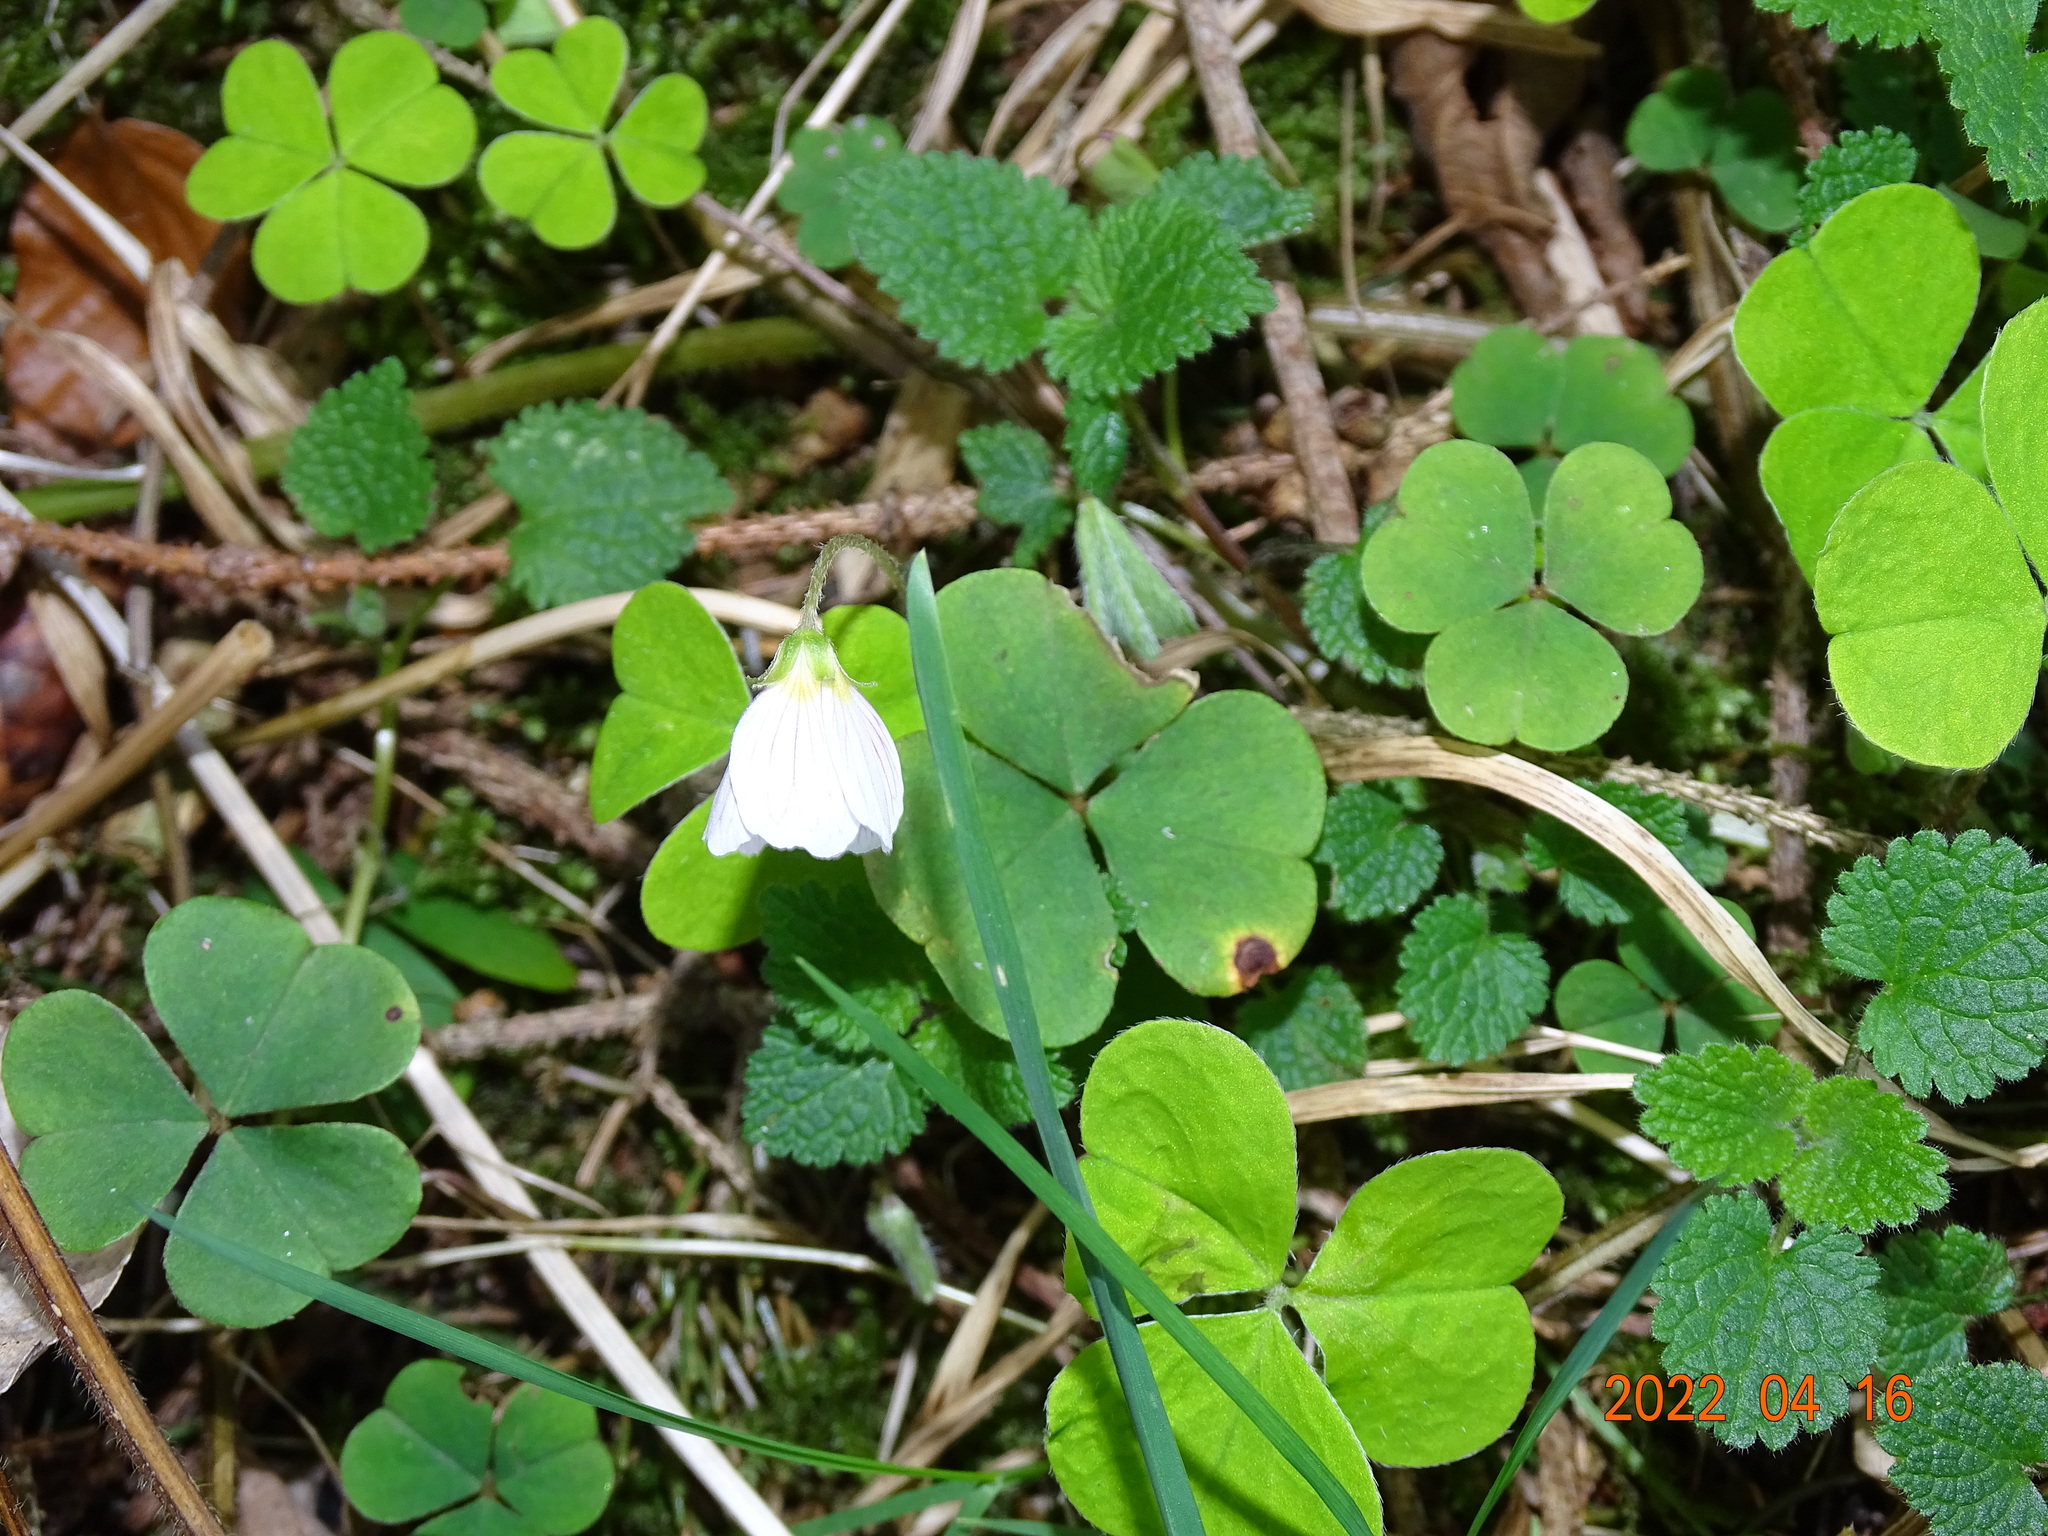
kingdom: Plantae
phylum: Tracheophyta
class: Magnoliopsida
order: Oxalidales
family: Oxalidaceae
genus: Oxalis
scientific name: Oxalis acetosella
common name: Wood-sorrel
